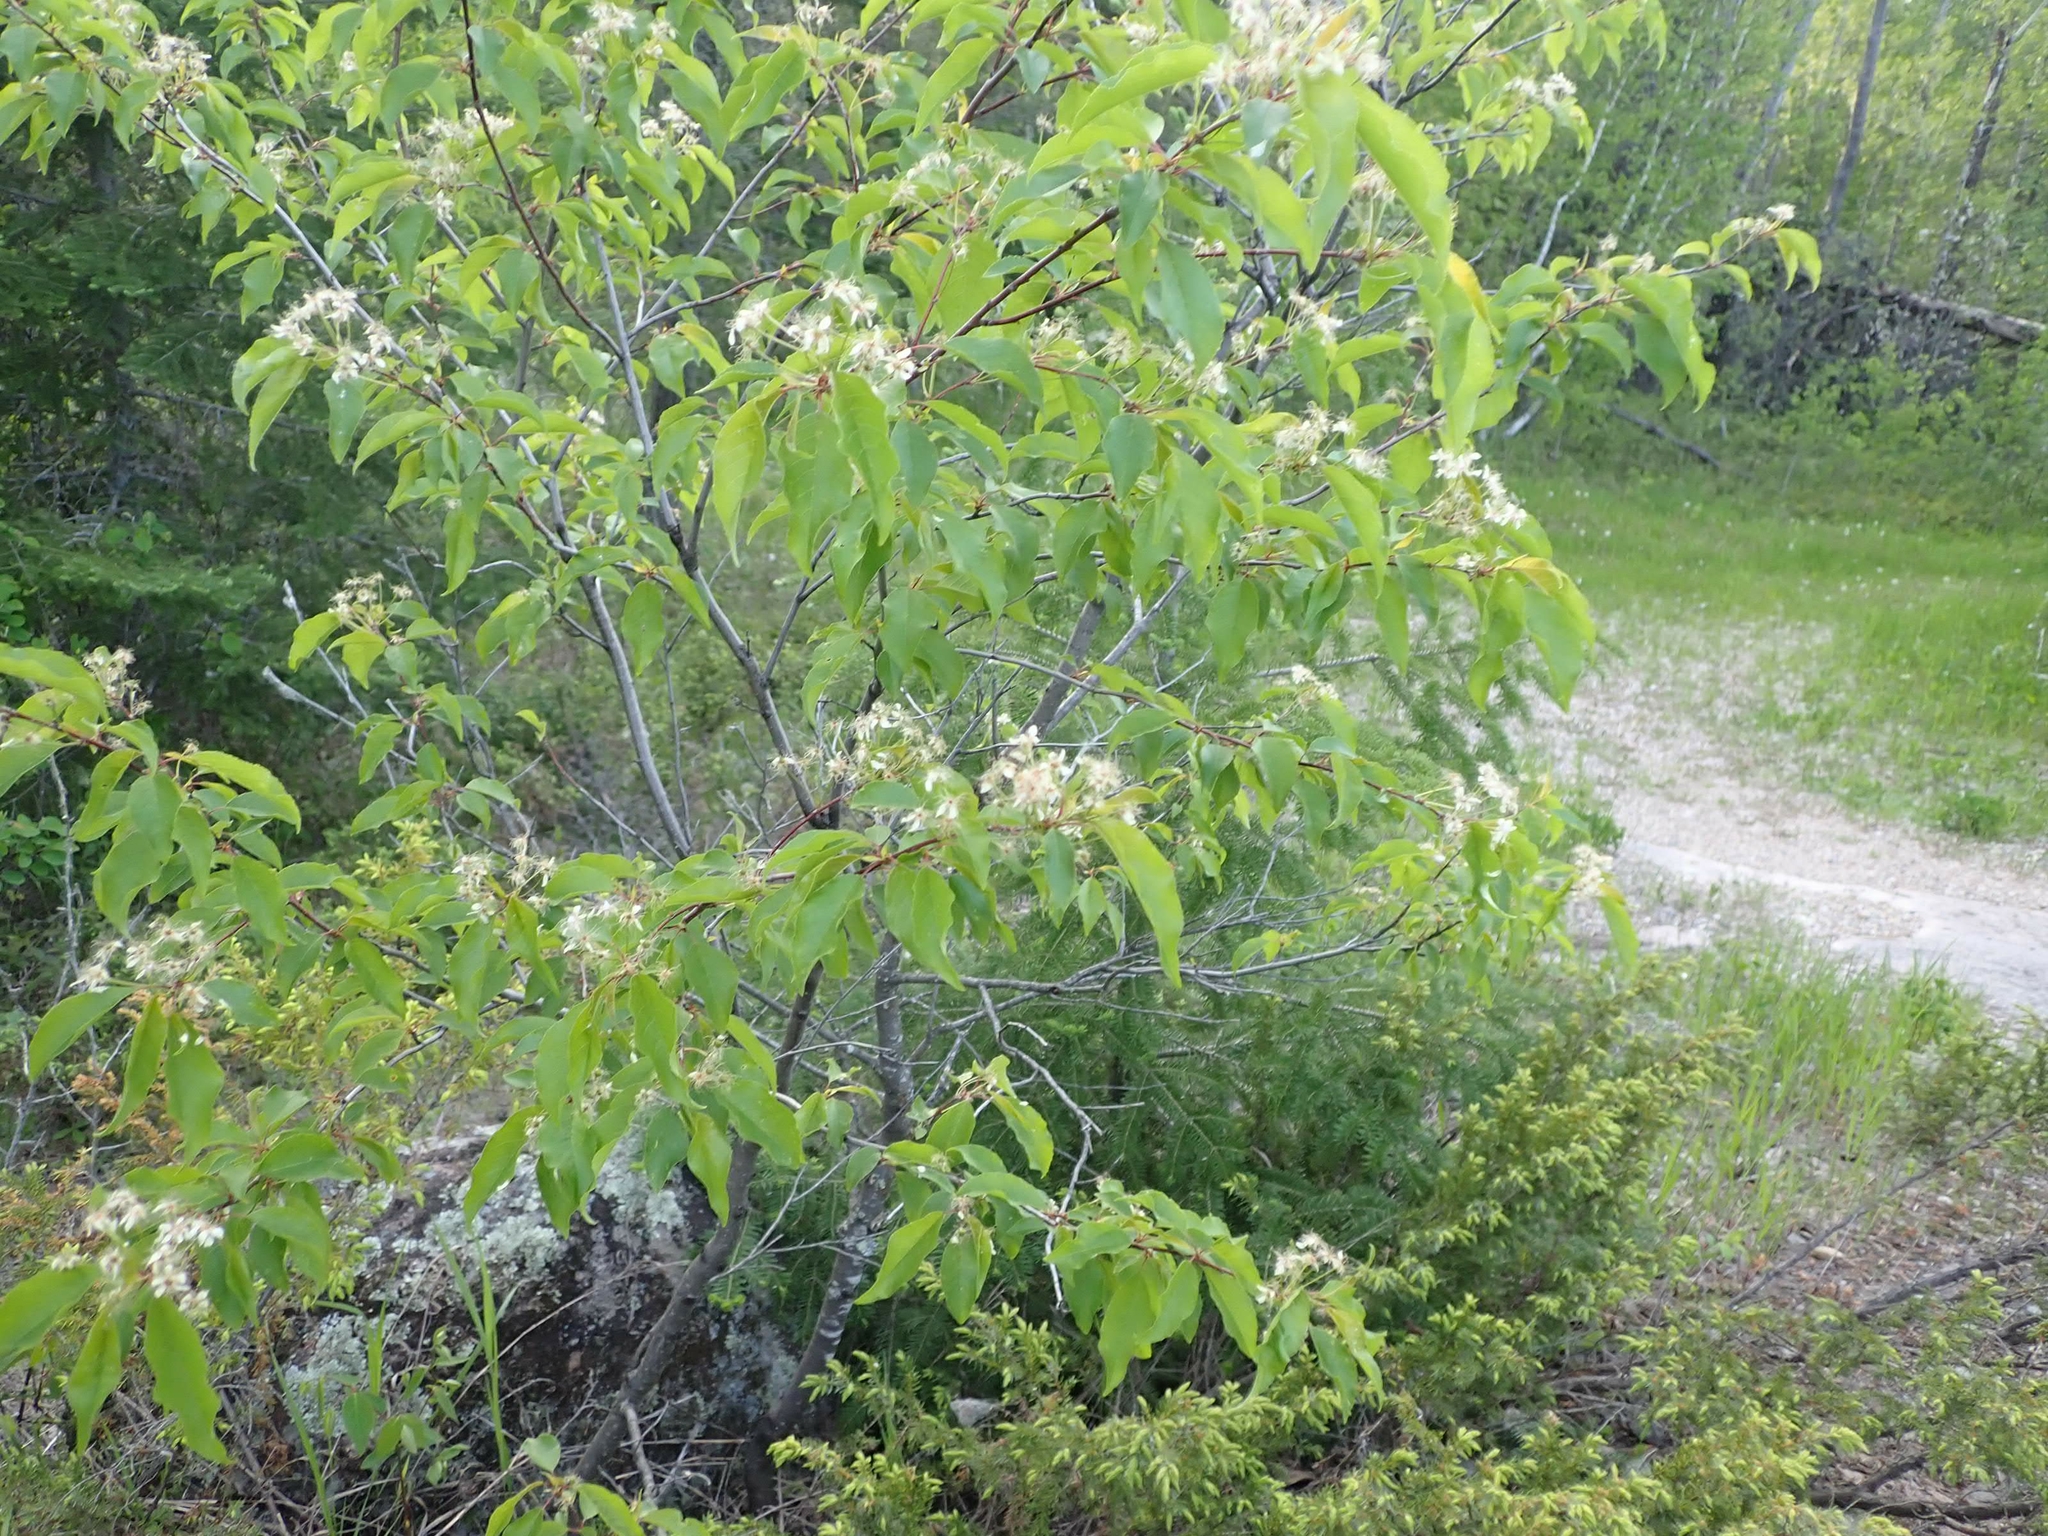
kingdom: Plantae
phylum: Tracheophyta
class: Magnoliopsida
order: Rosales
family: Rosaceae
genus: Prunus
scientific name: Prunus pensylvanica
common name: Pin cherry
